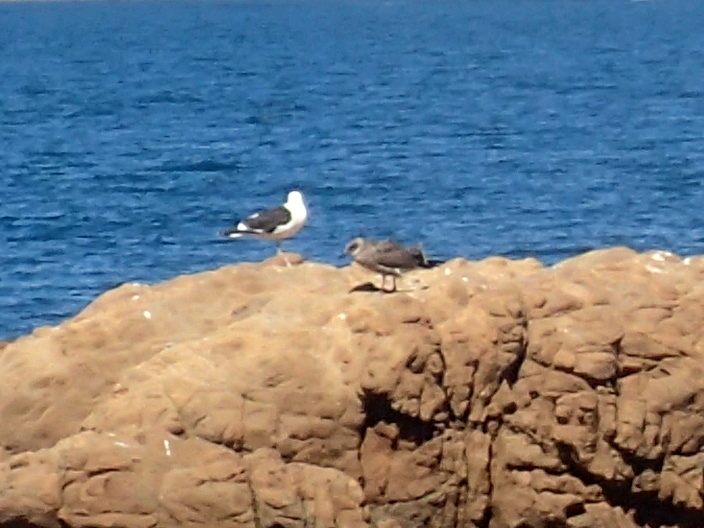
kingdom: Animalia
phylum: Chordata
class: Aves
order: Charadriiformes
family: Laridae
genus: Larus
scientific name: Larus dominicanus
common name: Kelp gull
